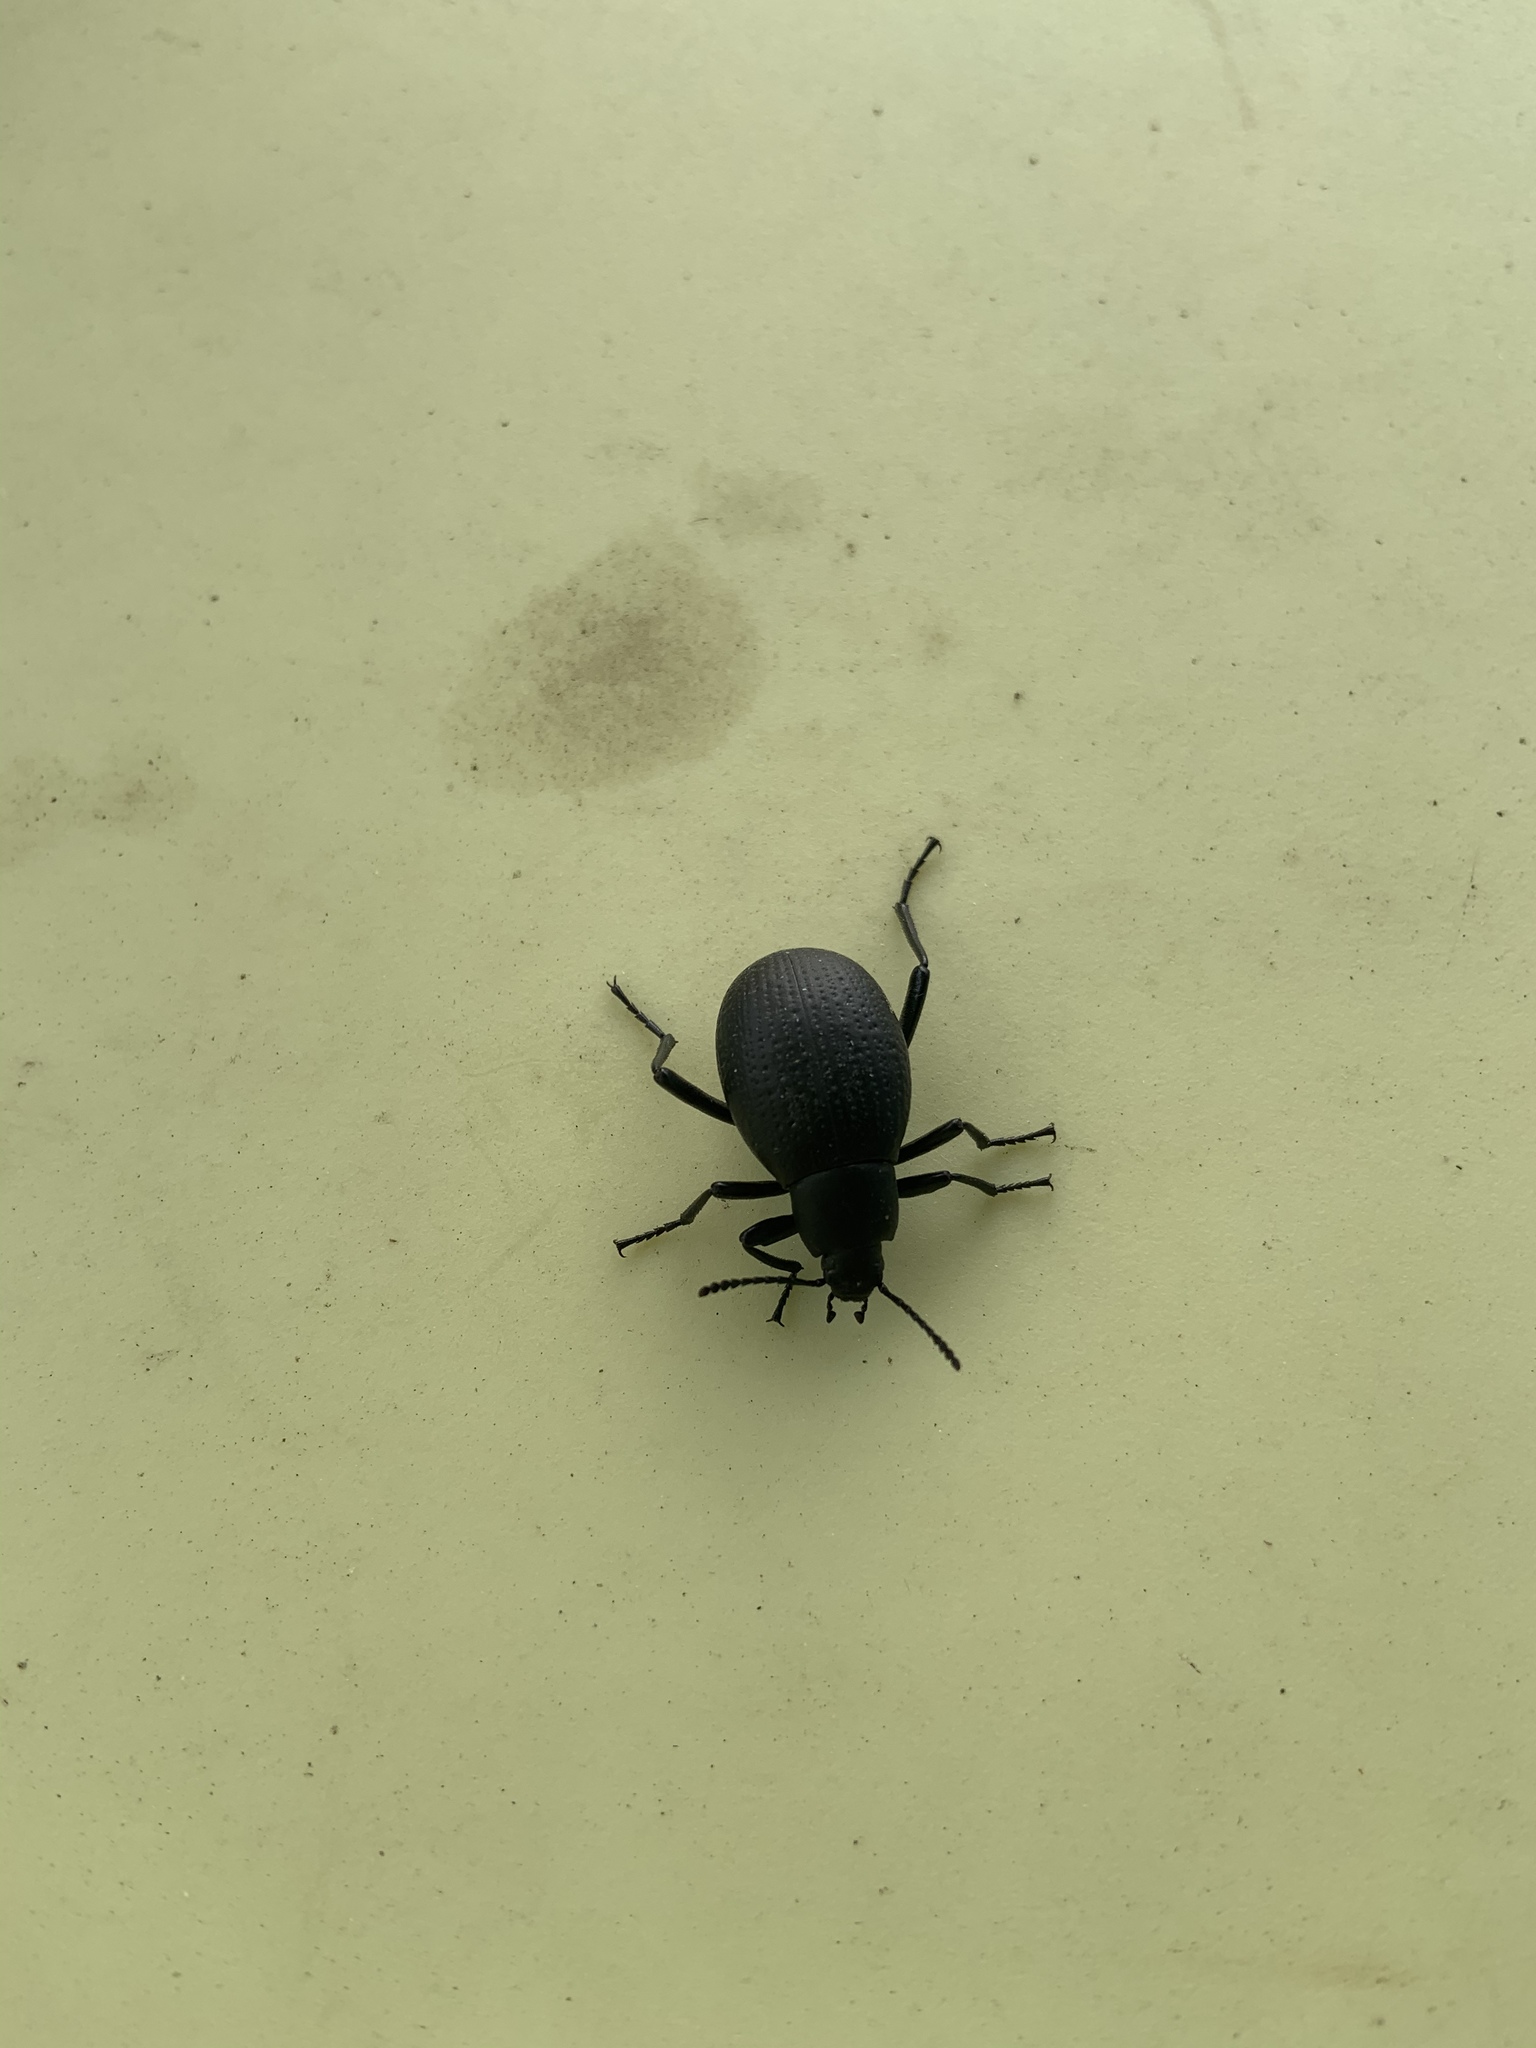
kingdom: Animalia
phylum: Arthropoda
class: Insecta
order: Coleoptera
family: Tenebrionidae
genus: Eleodes
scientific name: Eleodes goryi
